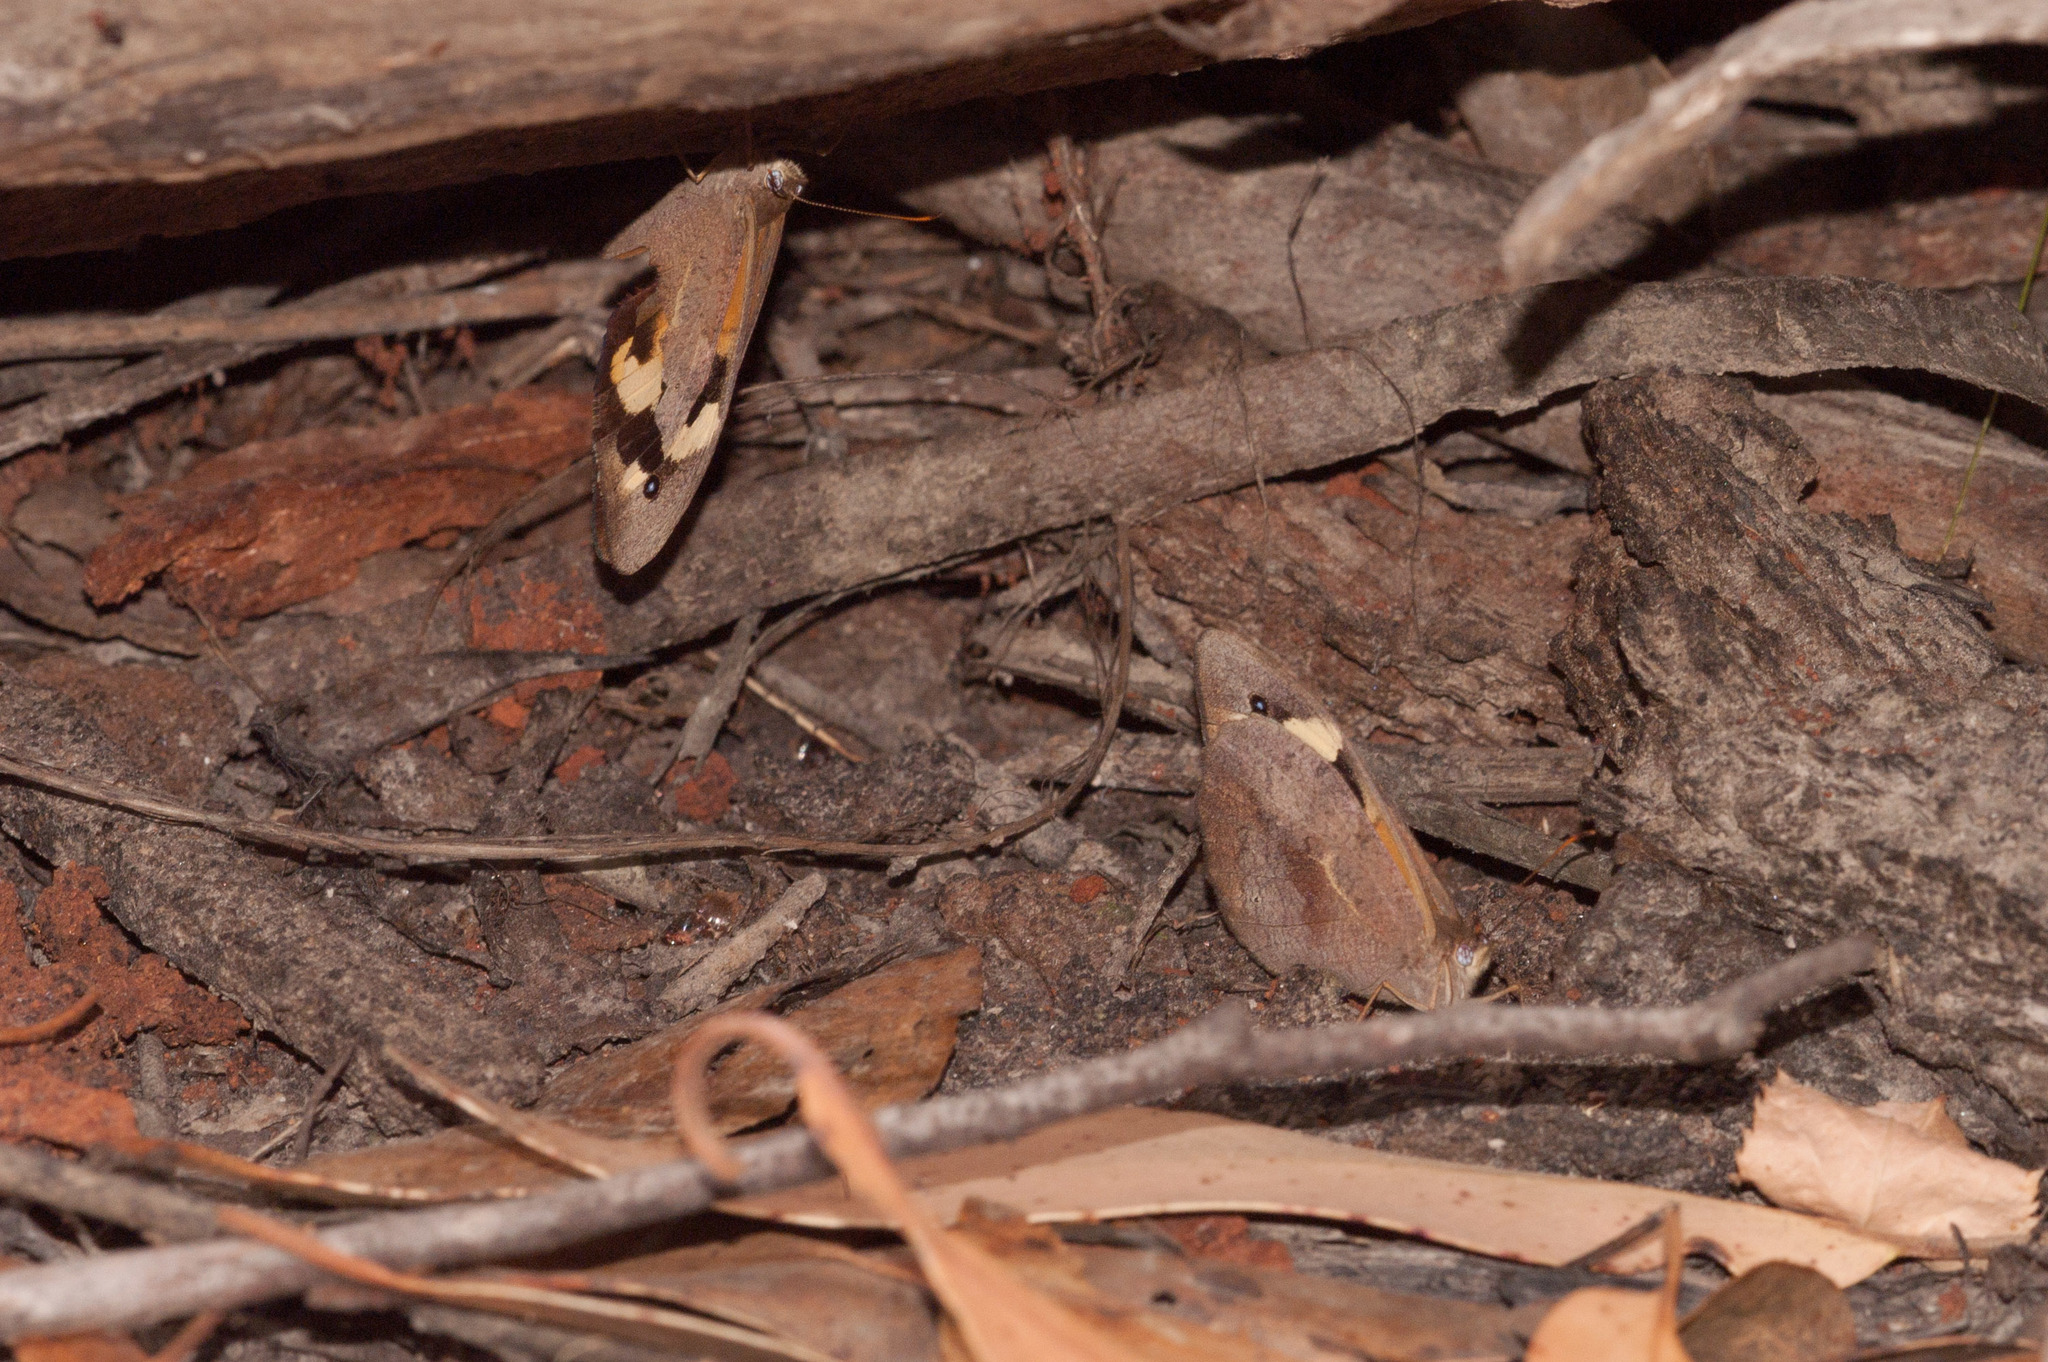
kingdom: Animalia
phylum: Arthropoda
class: Insecta
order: Lepidoptera
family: Nymphalidae
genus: Heteronympha
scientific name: Heteronympha merope
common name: Common brown
